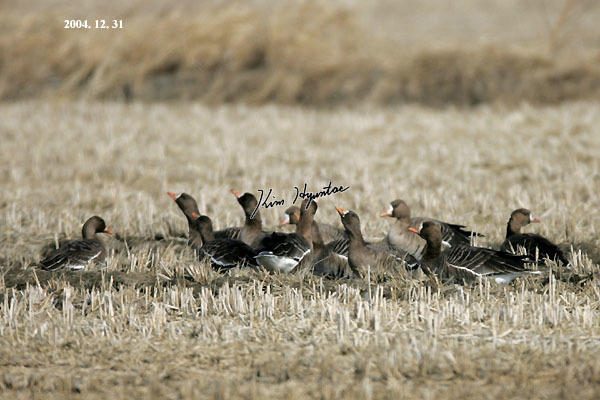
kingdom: Animalia
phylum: Chordata
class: Aves
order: Anseriformes
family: Anatidae
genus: Anser
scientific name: Anser albifrons
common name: Greater white-fronted goose
